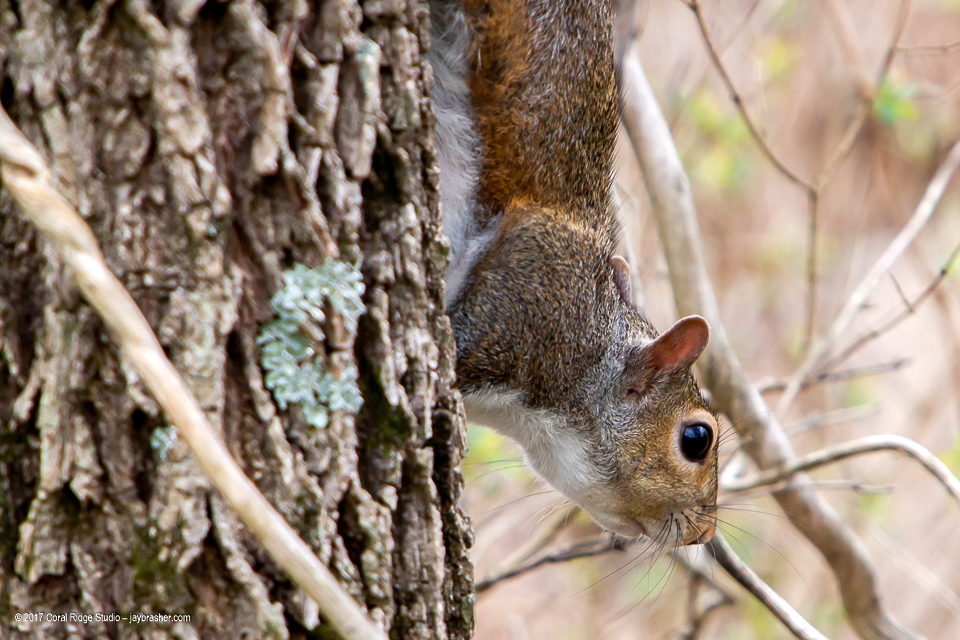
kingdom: Animalia
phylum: Chordata
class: Mammalia
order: Rodentia
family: Sciuridae
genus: Sciurus
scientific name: Sciurus carolinensis
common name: Eastern gray squirrel
